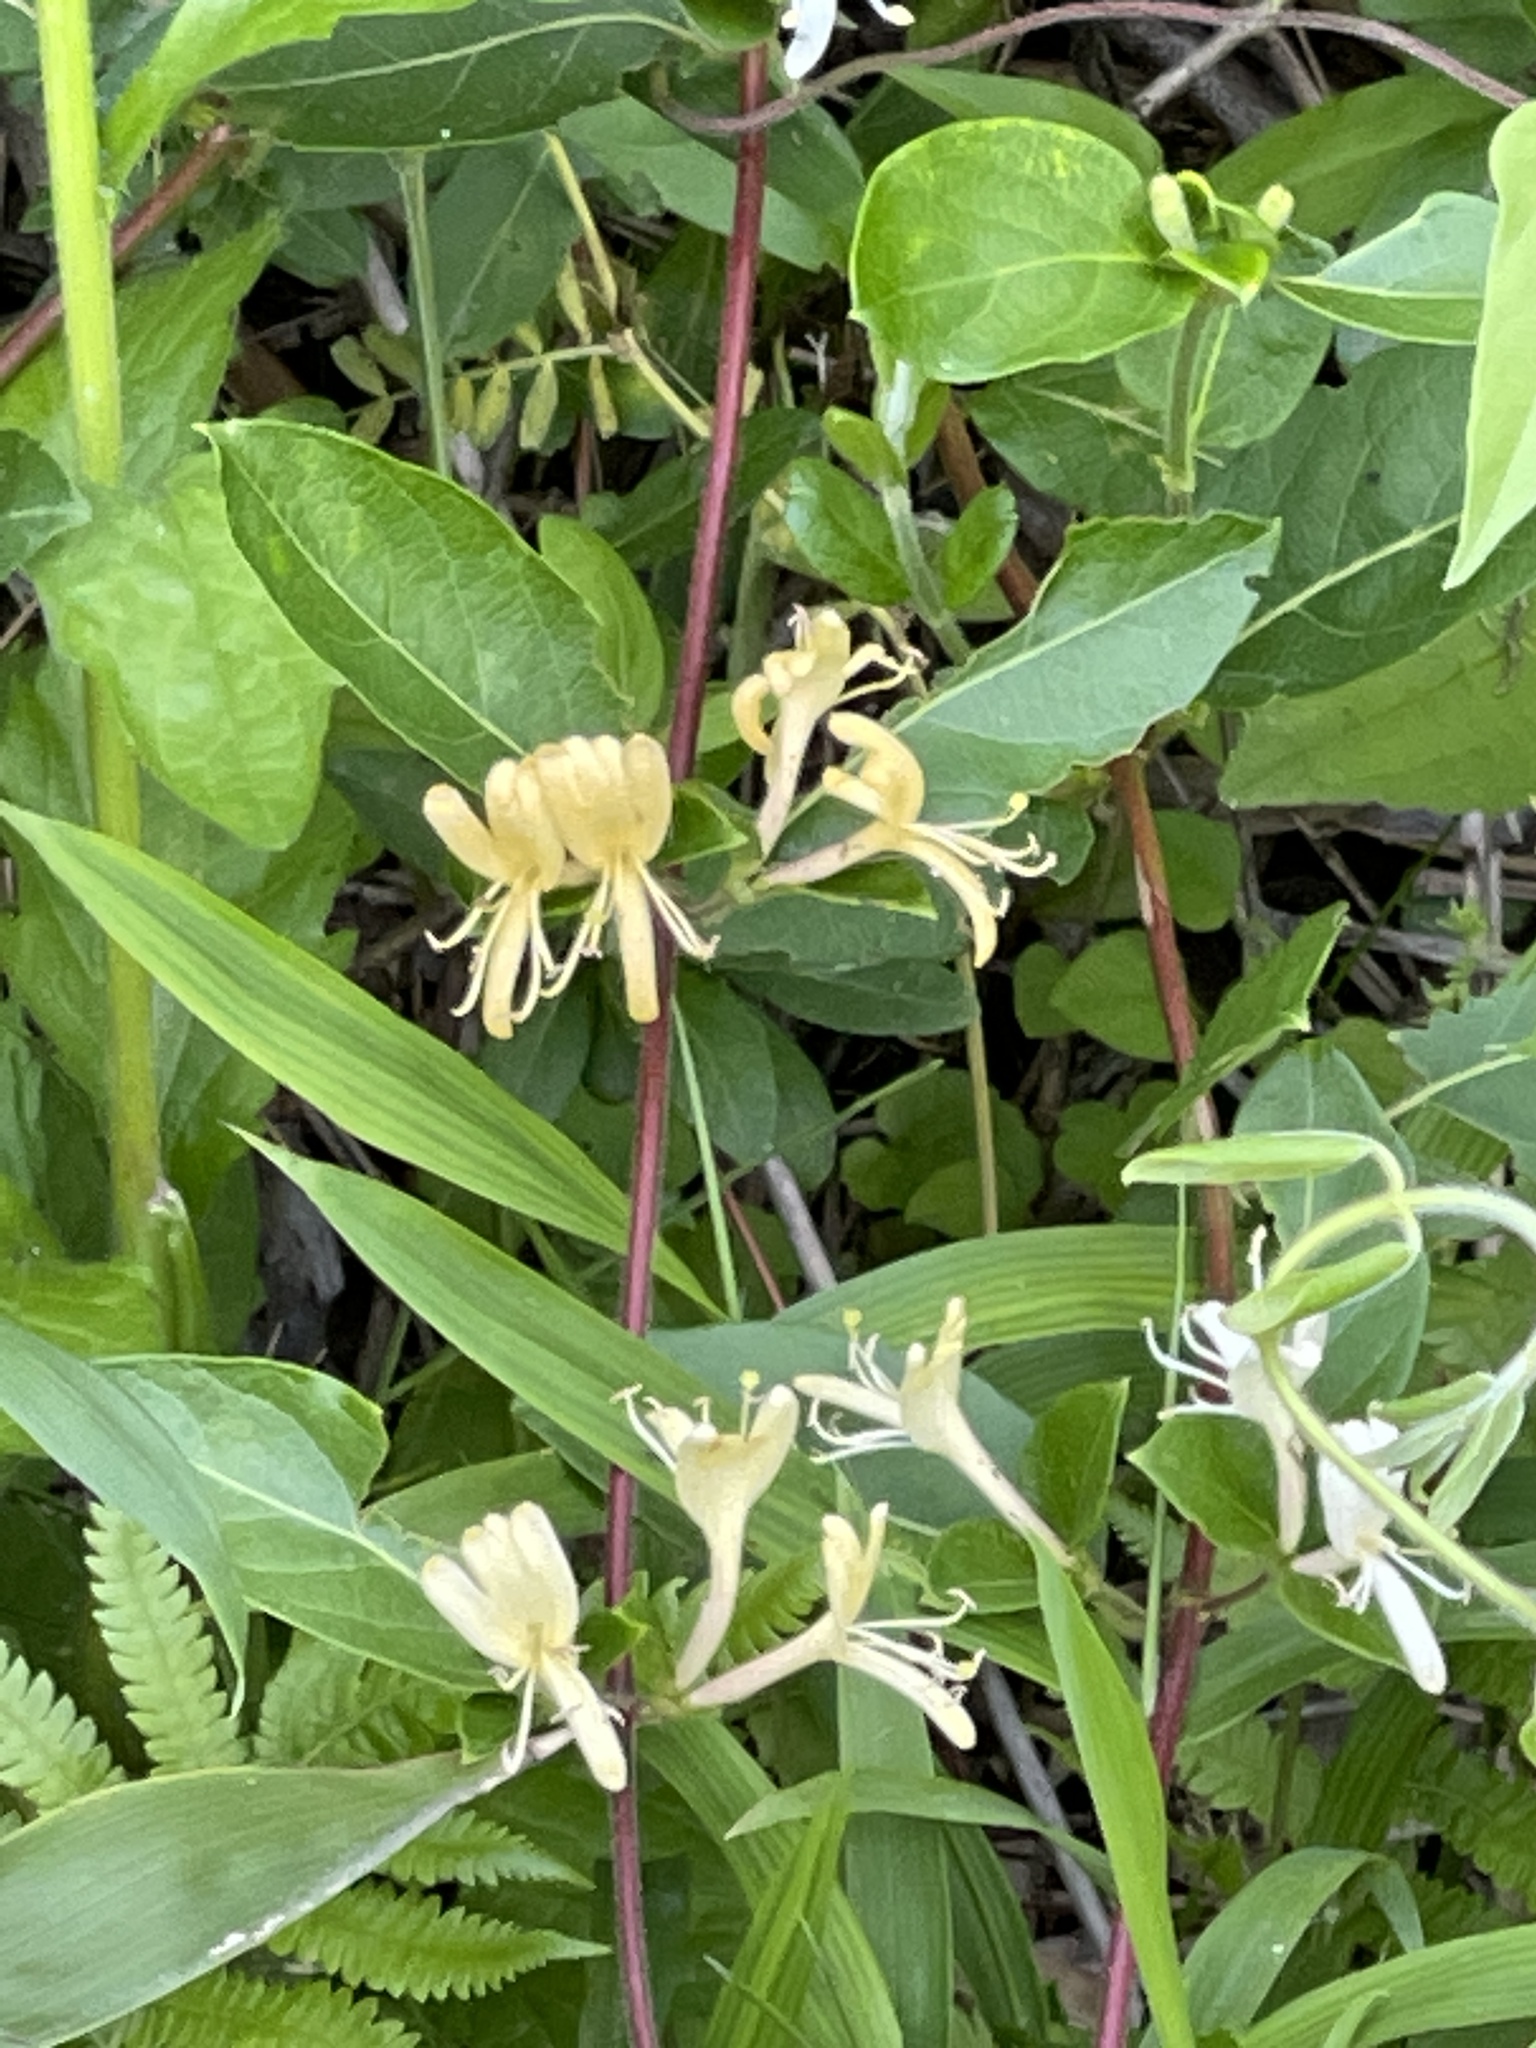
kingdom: Plantae
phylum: Tracheophyta
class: Magnoliopsida
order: Dipsacales
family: Caprifoliaceae
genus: Lonicera
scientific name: Lonicera japonica
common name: Japanese honeysuckle
